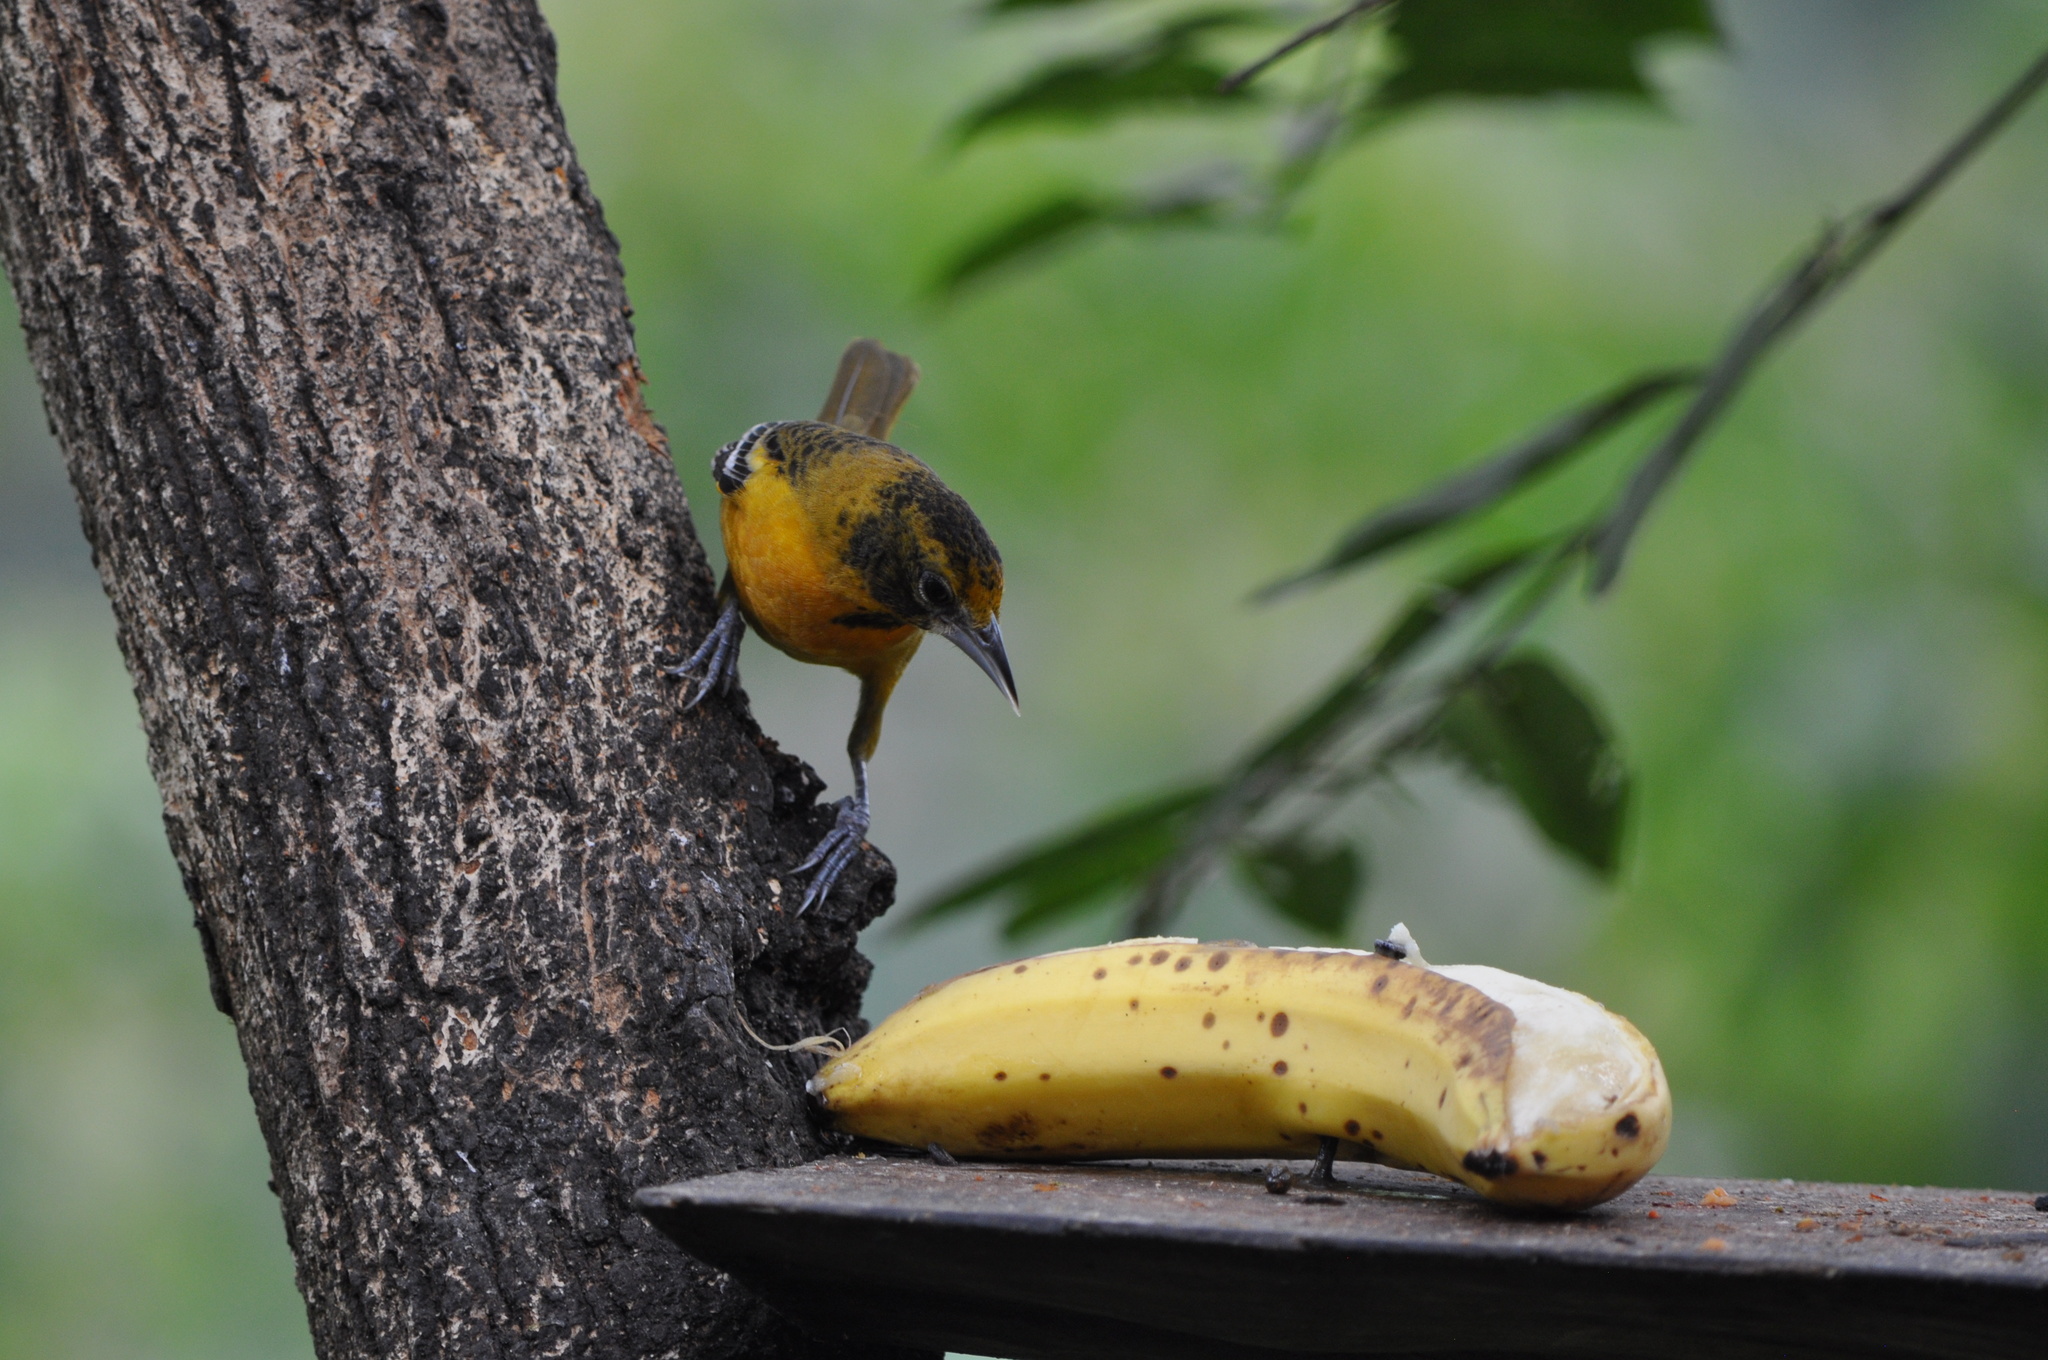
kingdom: Animalia
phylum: Chordata
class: Aves
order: Passeriformes
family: Icteridae
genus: Icterus
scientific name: Icterus galbula
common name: Baltimore oriole
